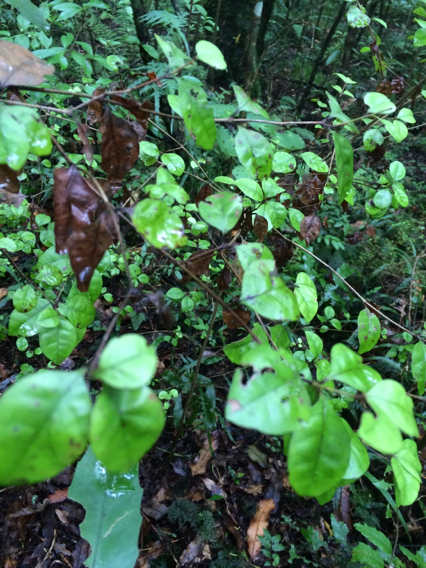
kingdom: Plantae
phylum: Tracheophyta
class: Magnoliopsida
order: Myrtales
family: Myrtaceae
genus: Lophomyrtus
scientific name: Lophomyrtus bullata
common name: Rama rama
